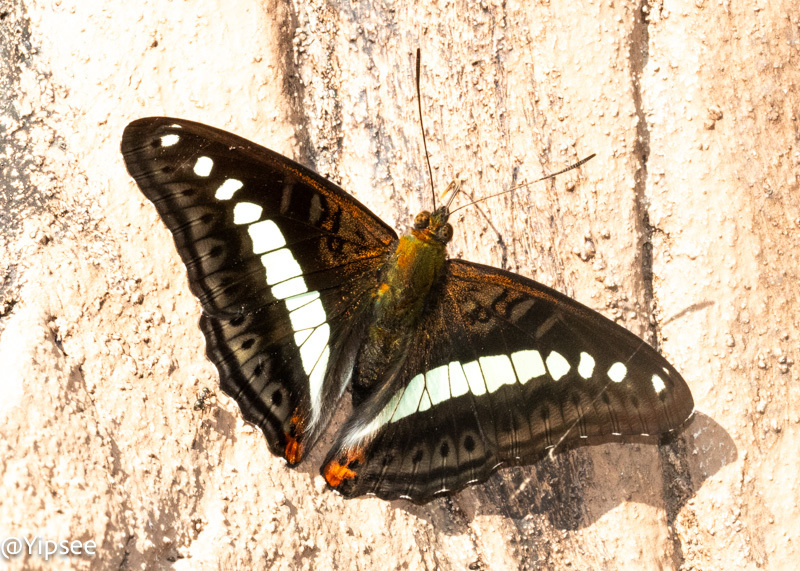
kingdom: Animalia
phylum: Arthropoda
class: Insecta
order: Lepidoptera
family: Nymphalidae
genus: Limenitis
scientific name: Limenitis Sumalia daraxa
